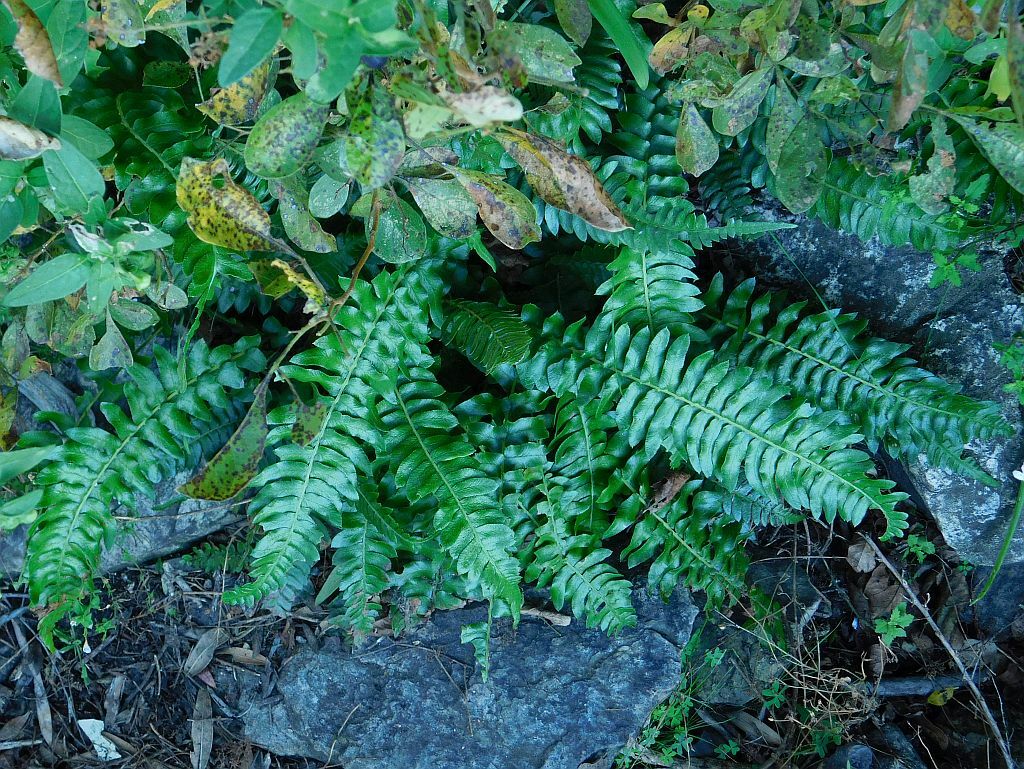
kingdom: Plantae
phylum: Tracheophyta
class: Polypodiopsida
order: Polypodiales
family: Blechnaceae
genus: Blechnum
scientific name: Blechnum punctulatum
